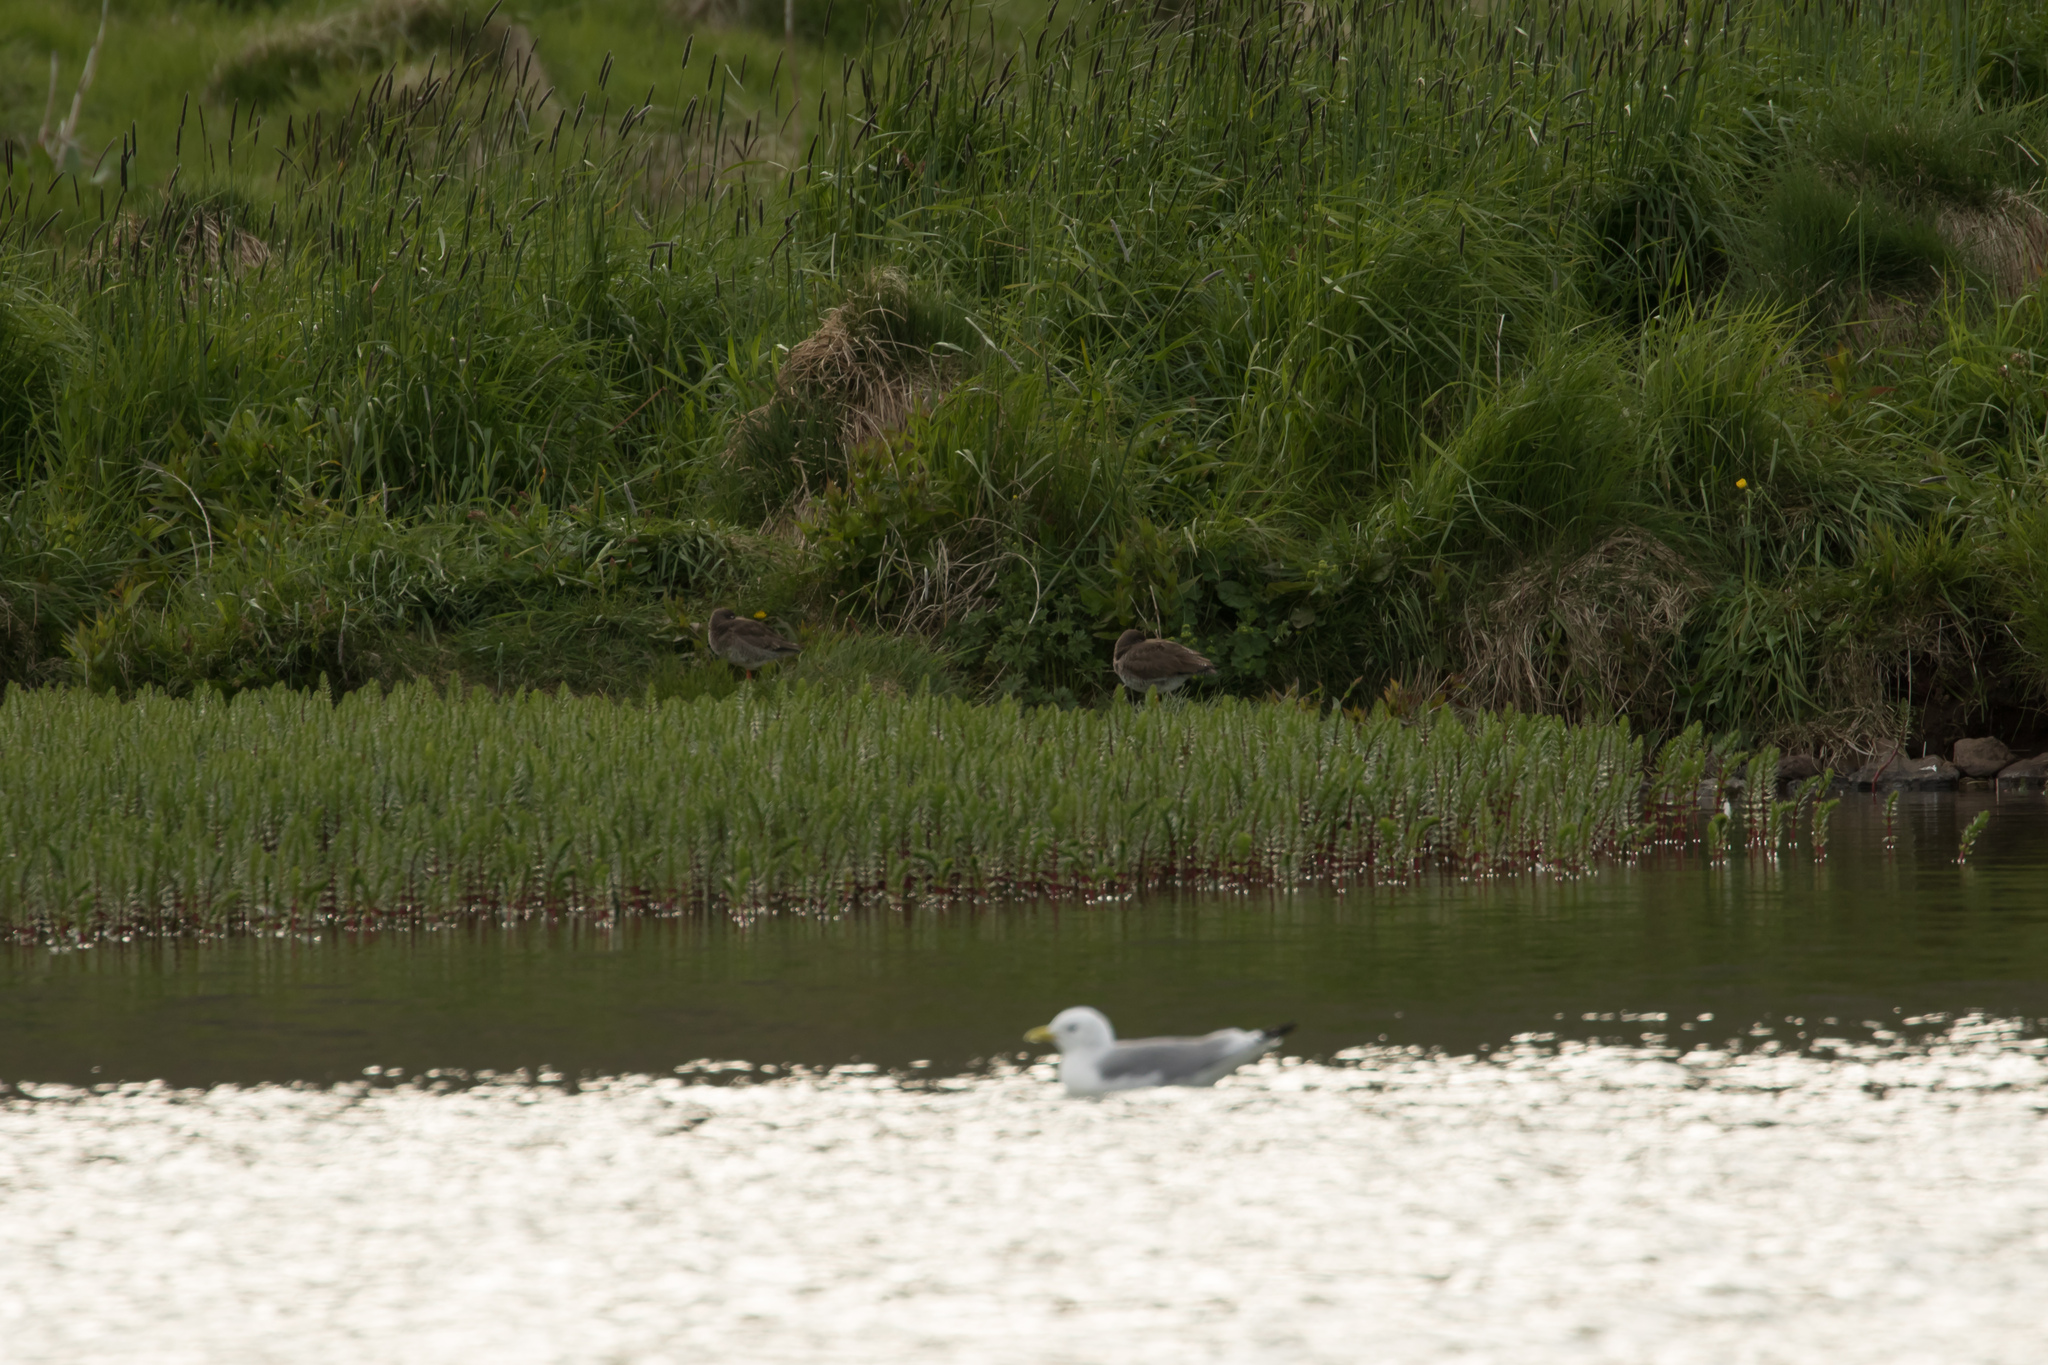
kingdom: Animalia
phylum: Chordata
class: Aves
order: Charadriiformes
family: Scolopacidae
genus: Tringa
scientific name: Tringa totanus
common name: Common redshank
